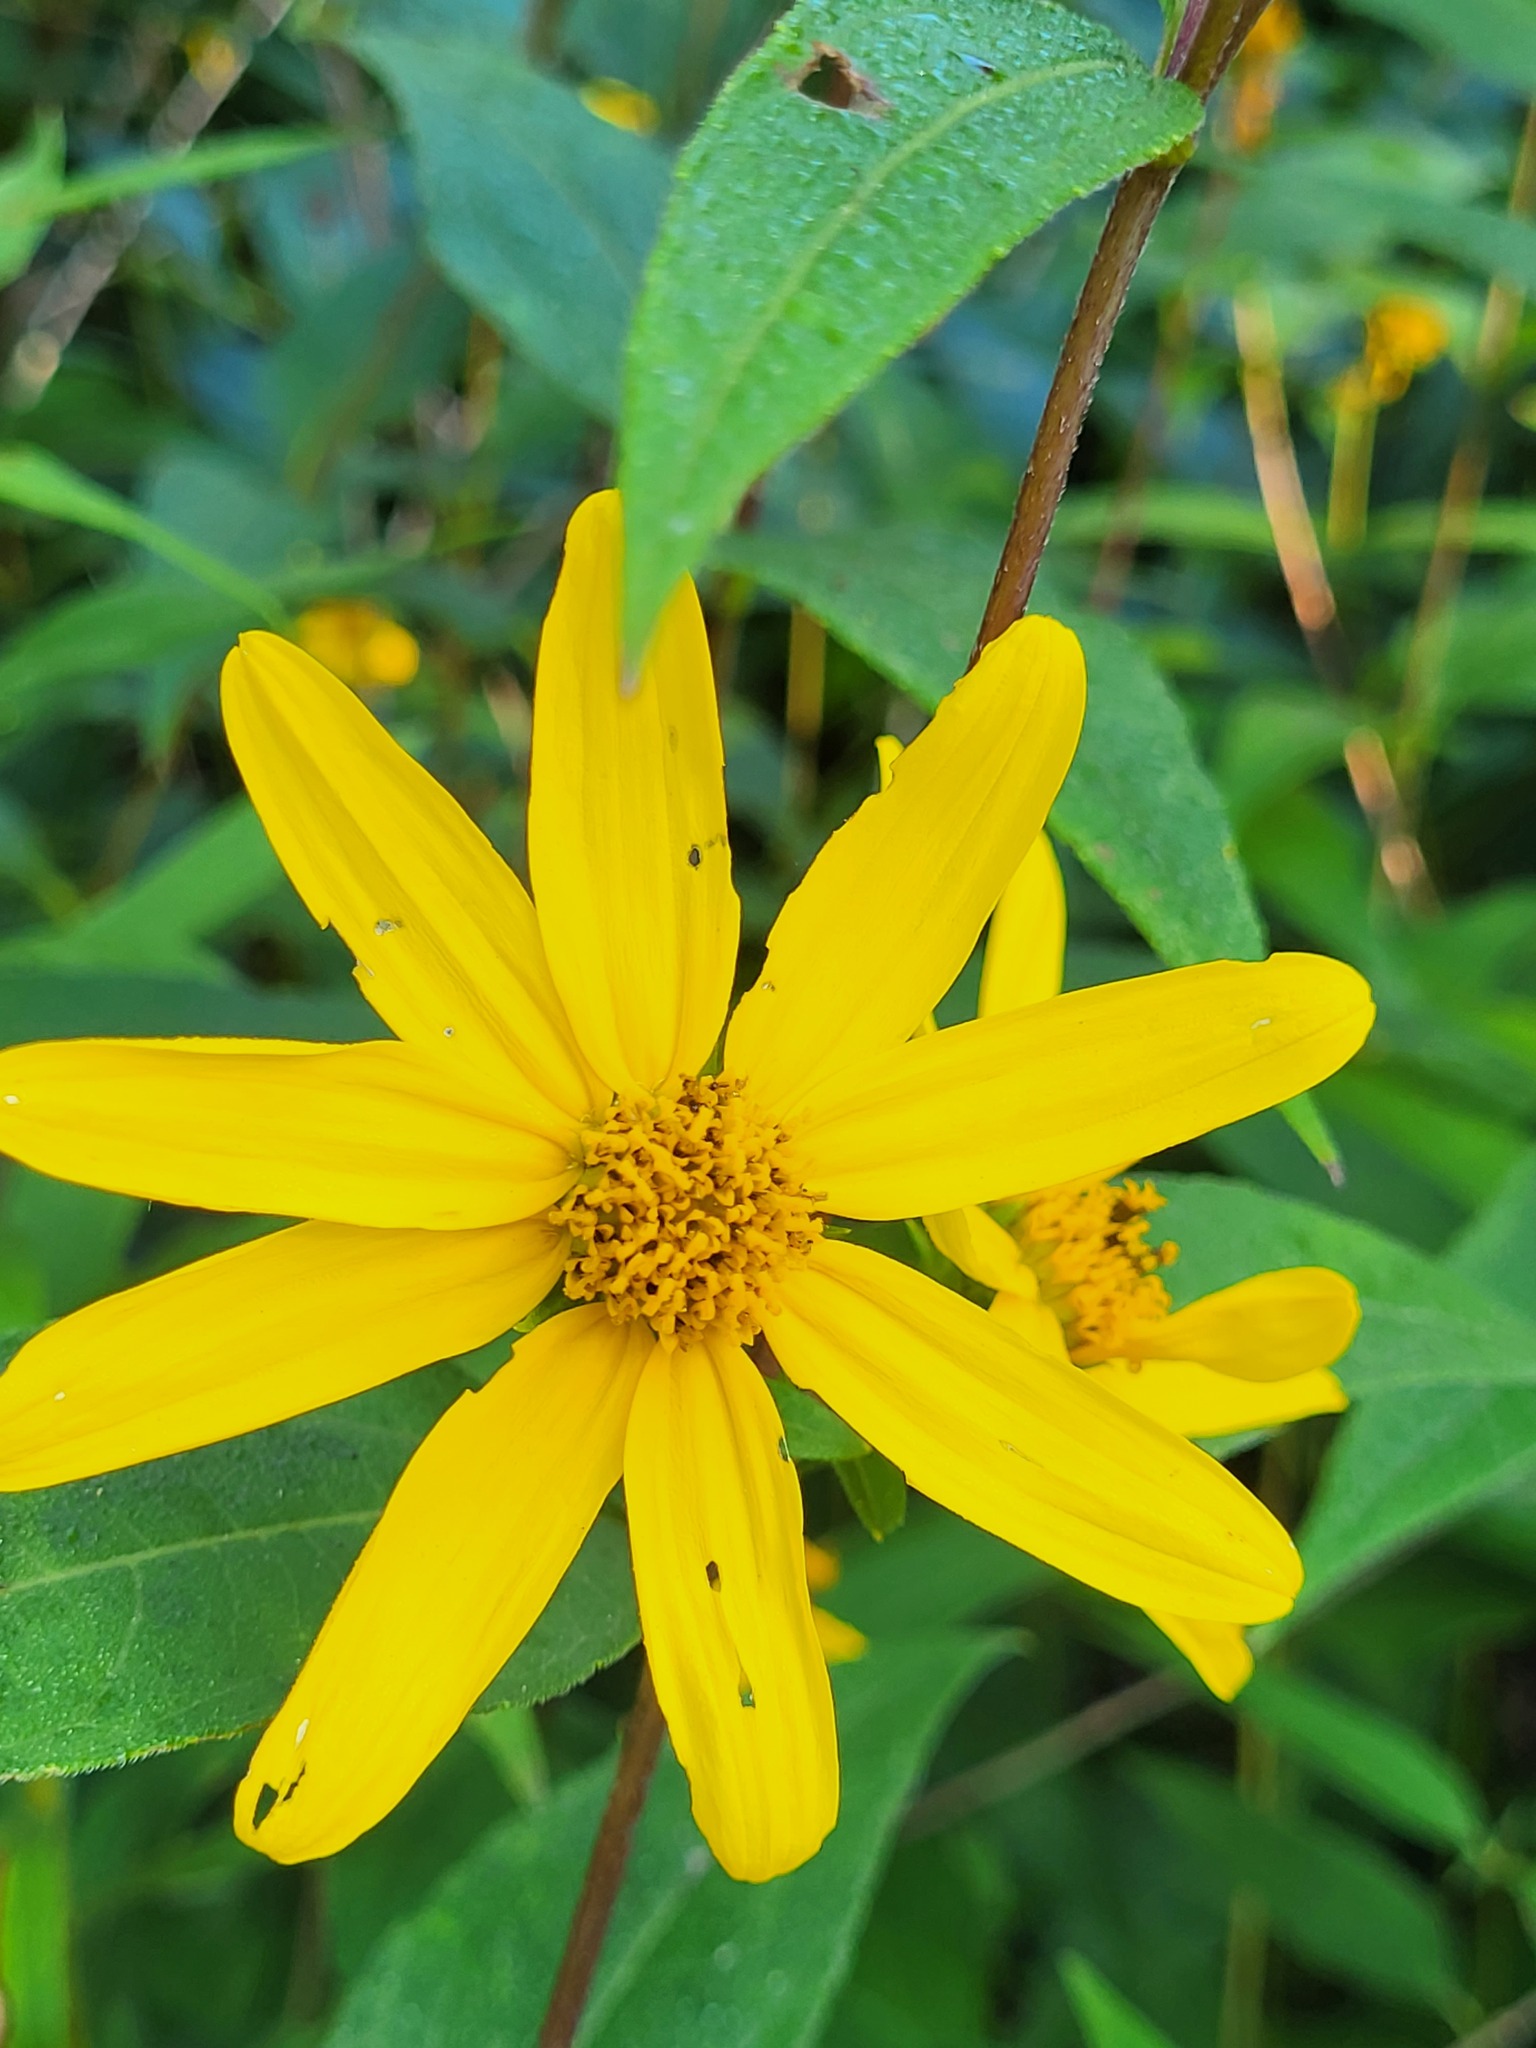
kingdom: Plantae
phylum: Tracheophyta
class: Magnoliopsida
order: Asterales
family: Asteraceae
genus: Helianthus
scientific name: Helianthus divaricatus
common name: Divergent sunflower
